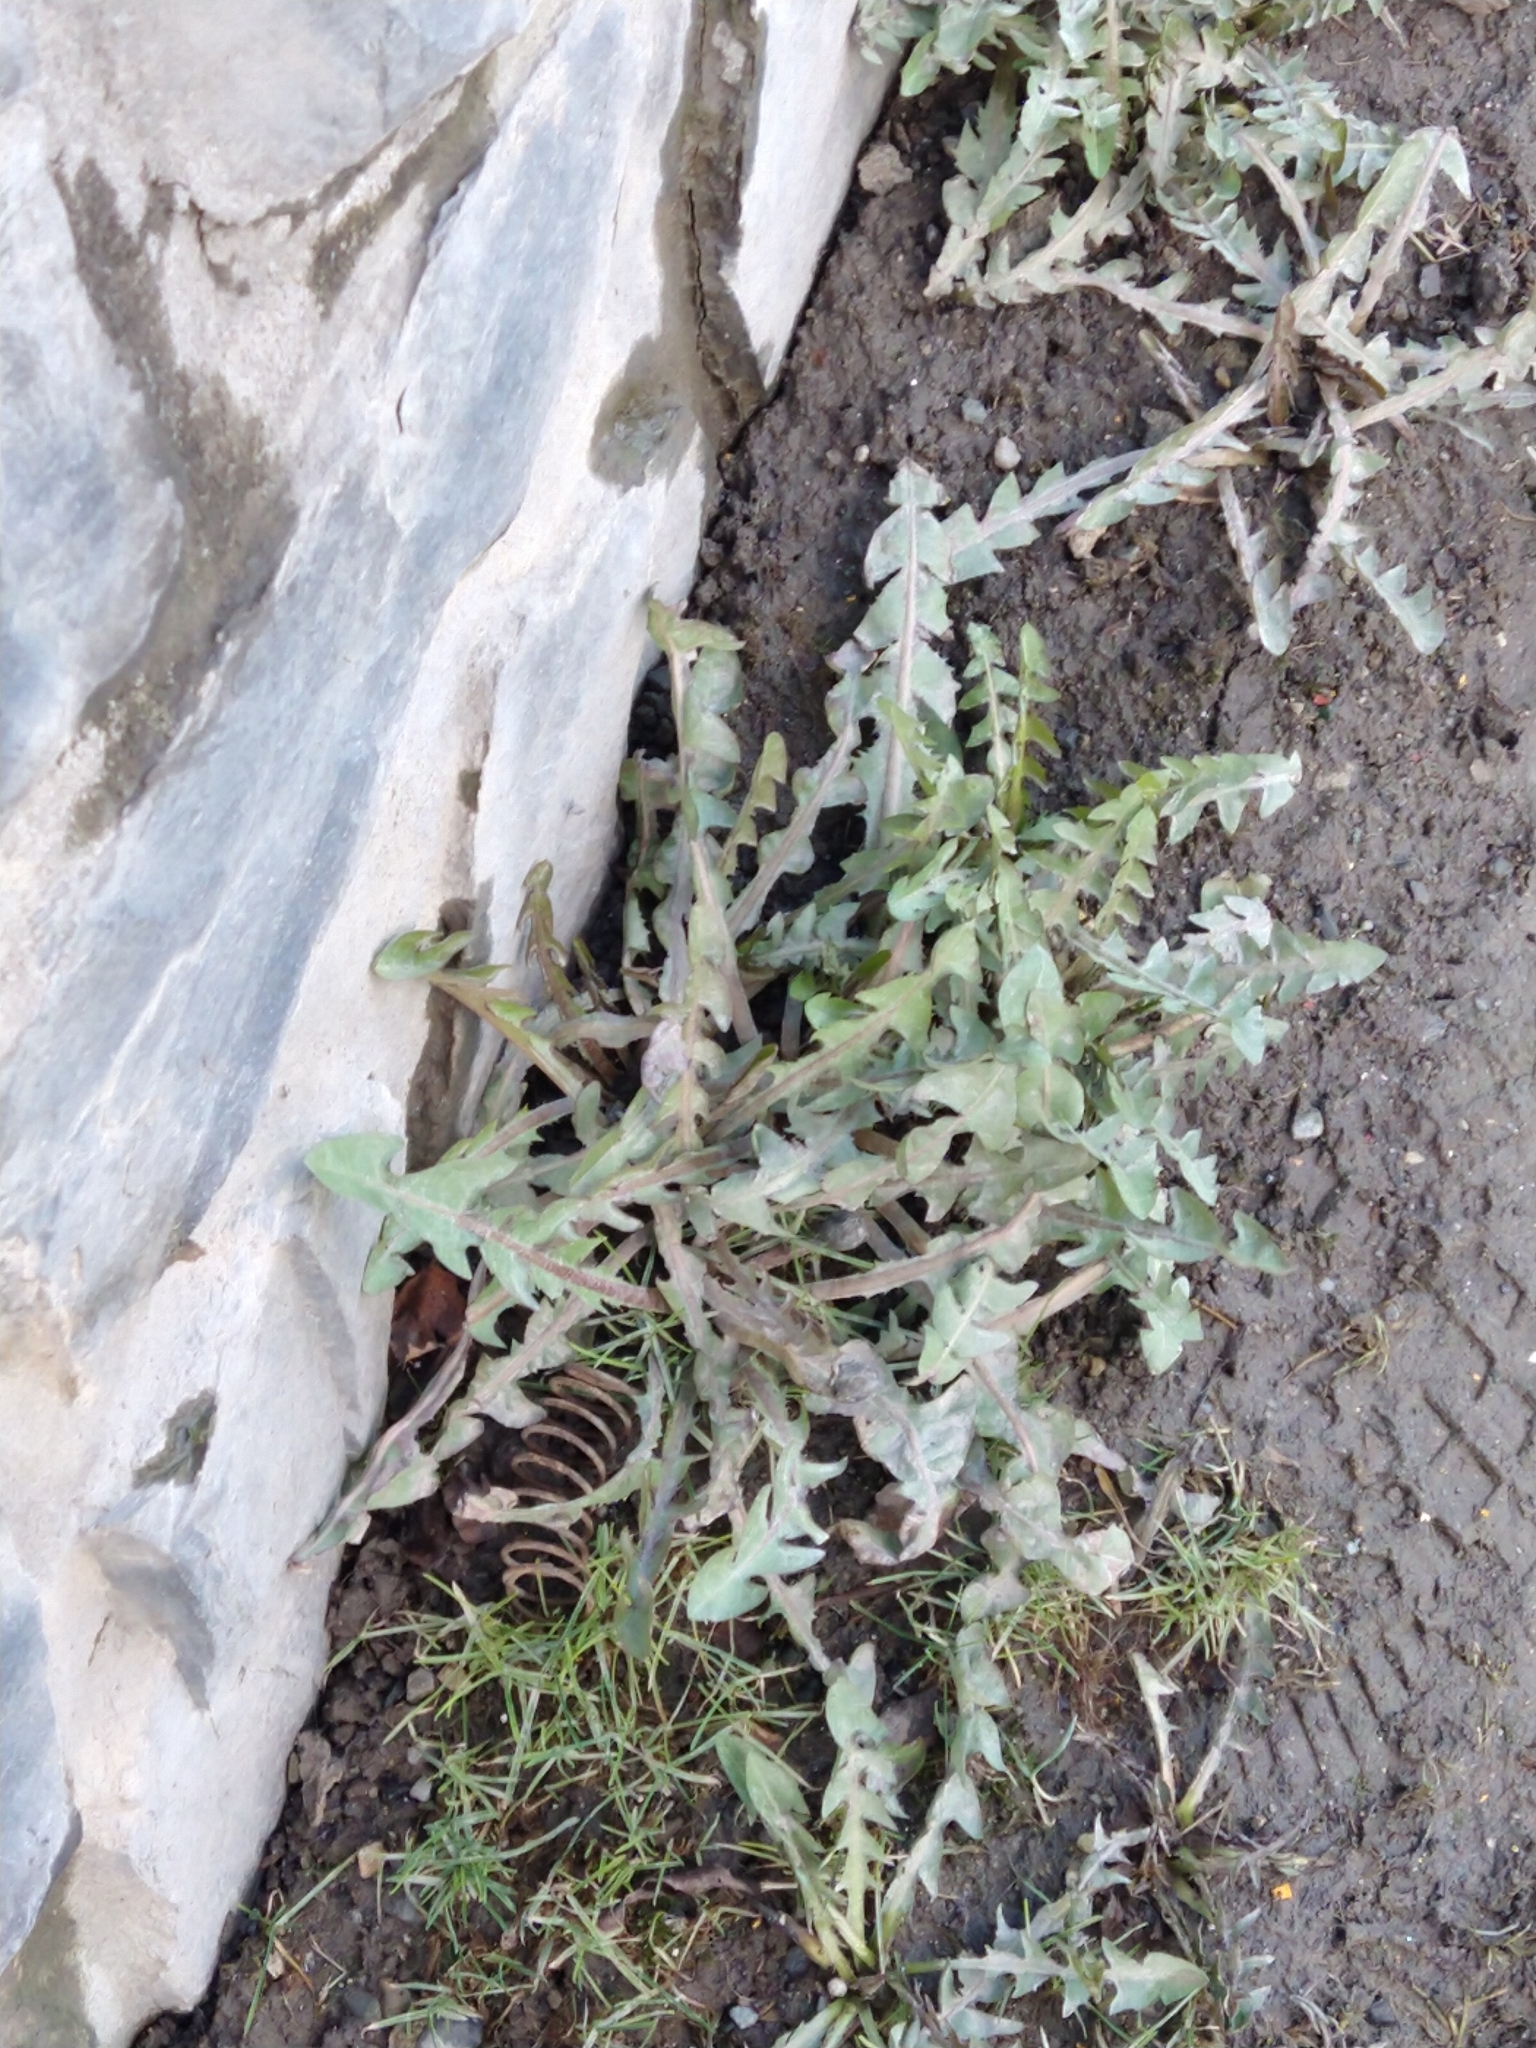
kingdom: Plantae
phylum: Tracheophyta
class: Magnoliopsida
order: Asterales
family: Asteraceae
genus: Taraxacum
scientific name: Taraxacum officinale
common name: Common dandelion
